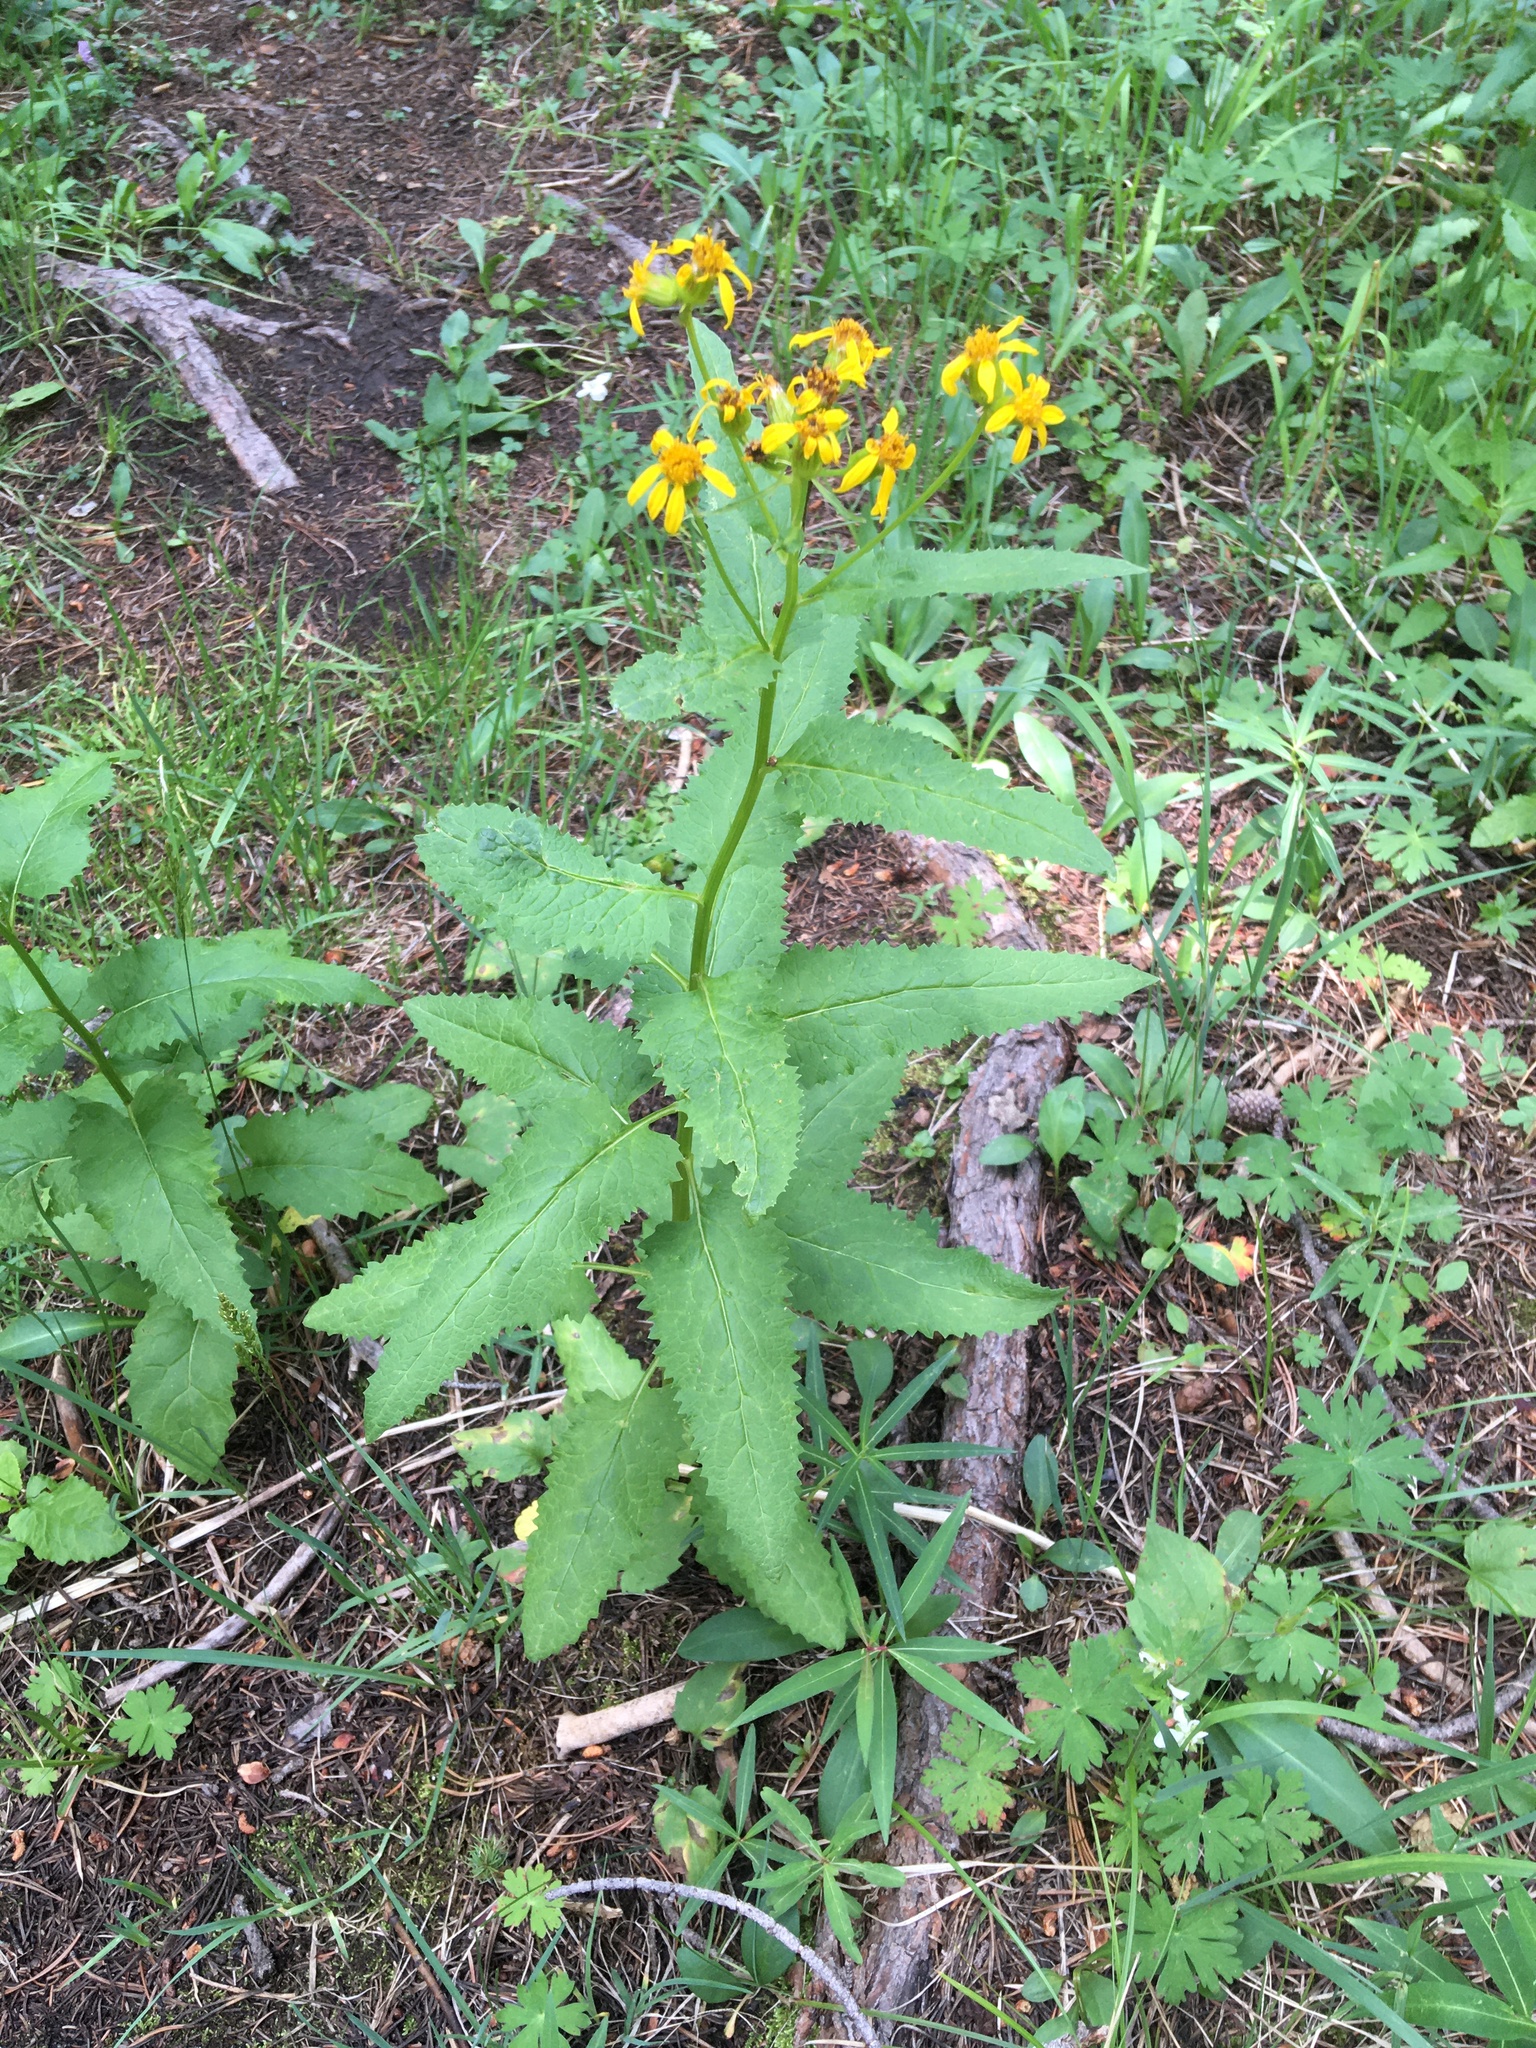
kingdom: Plantae
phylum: Tracheophyta
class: Magnoliopsida
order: Asterales
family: Asteraceae
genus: Senecio
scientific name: Senecio triangularis
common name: Arrowleaf butterweed
